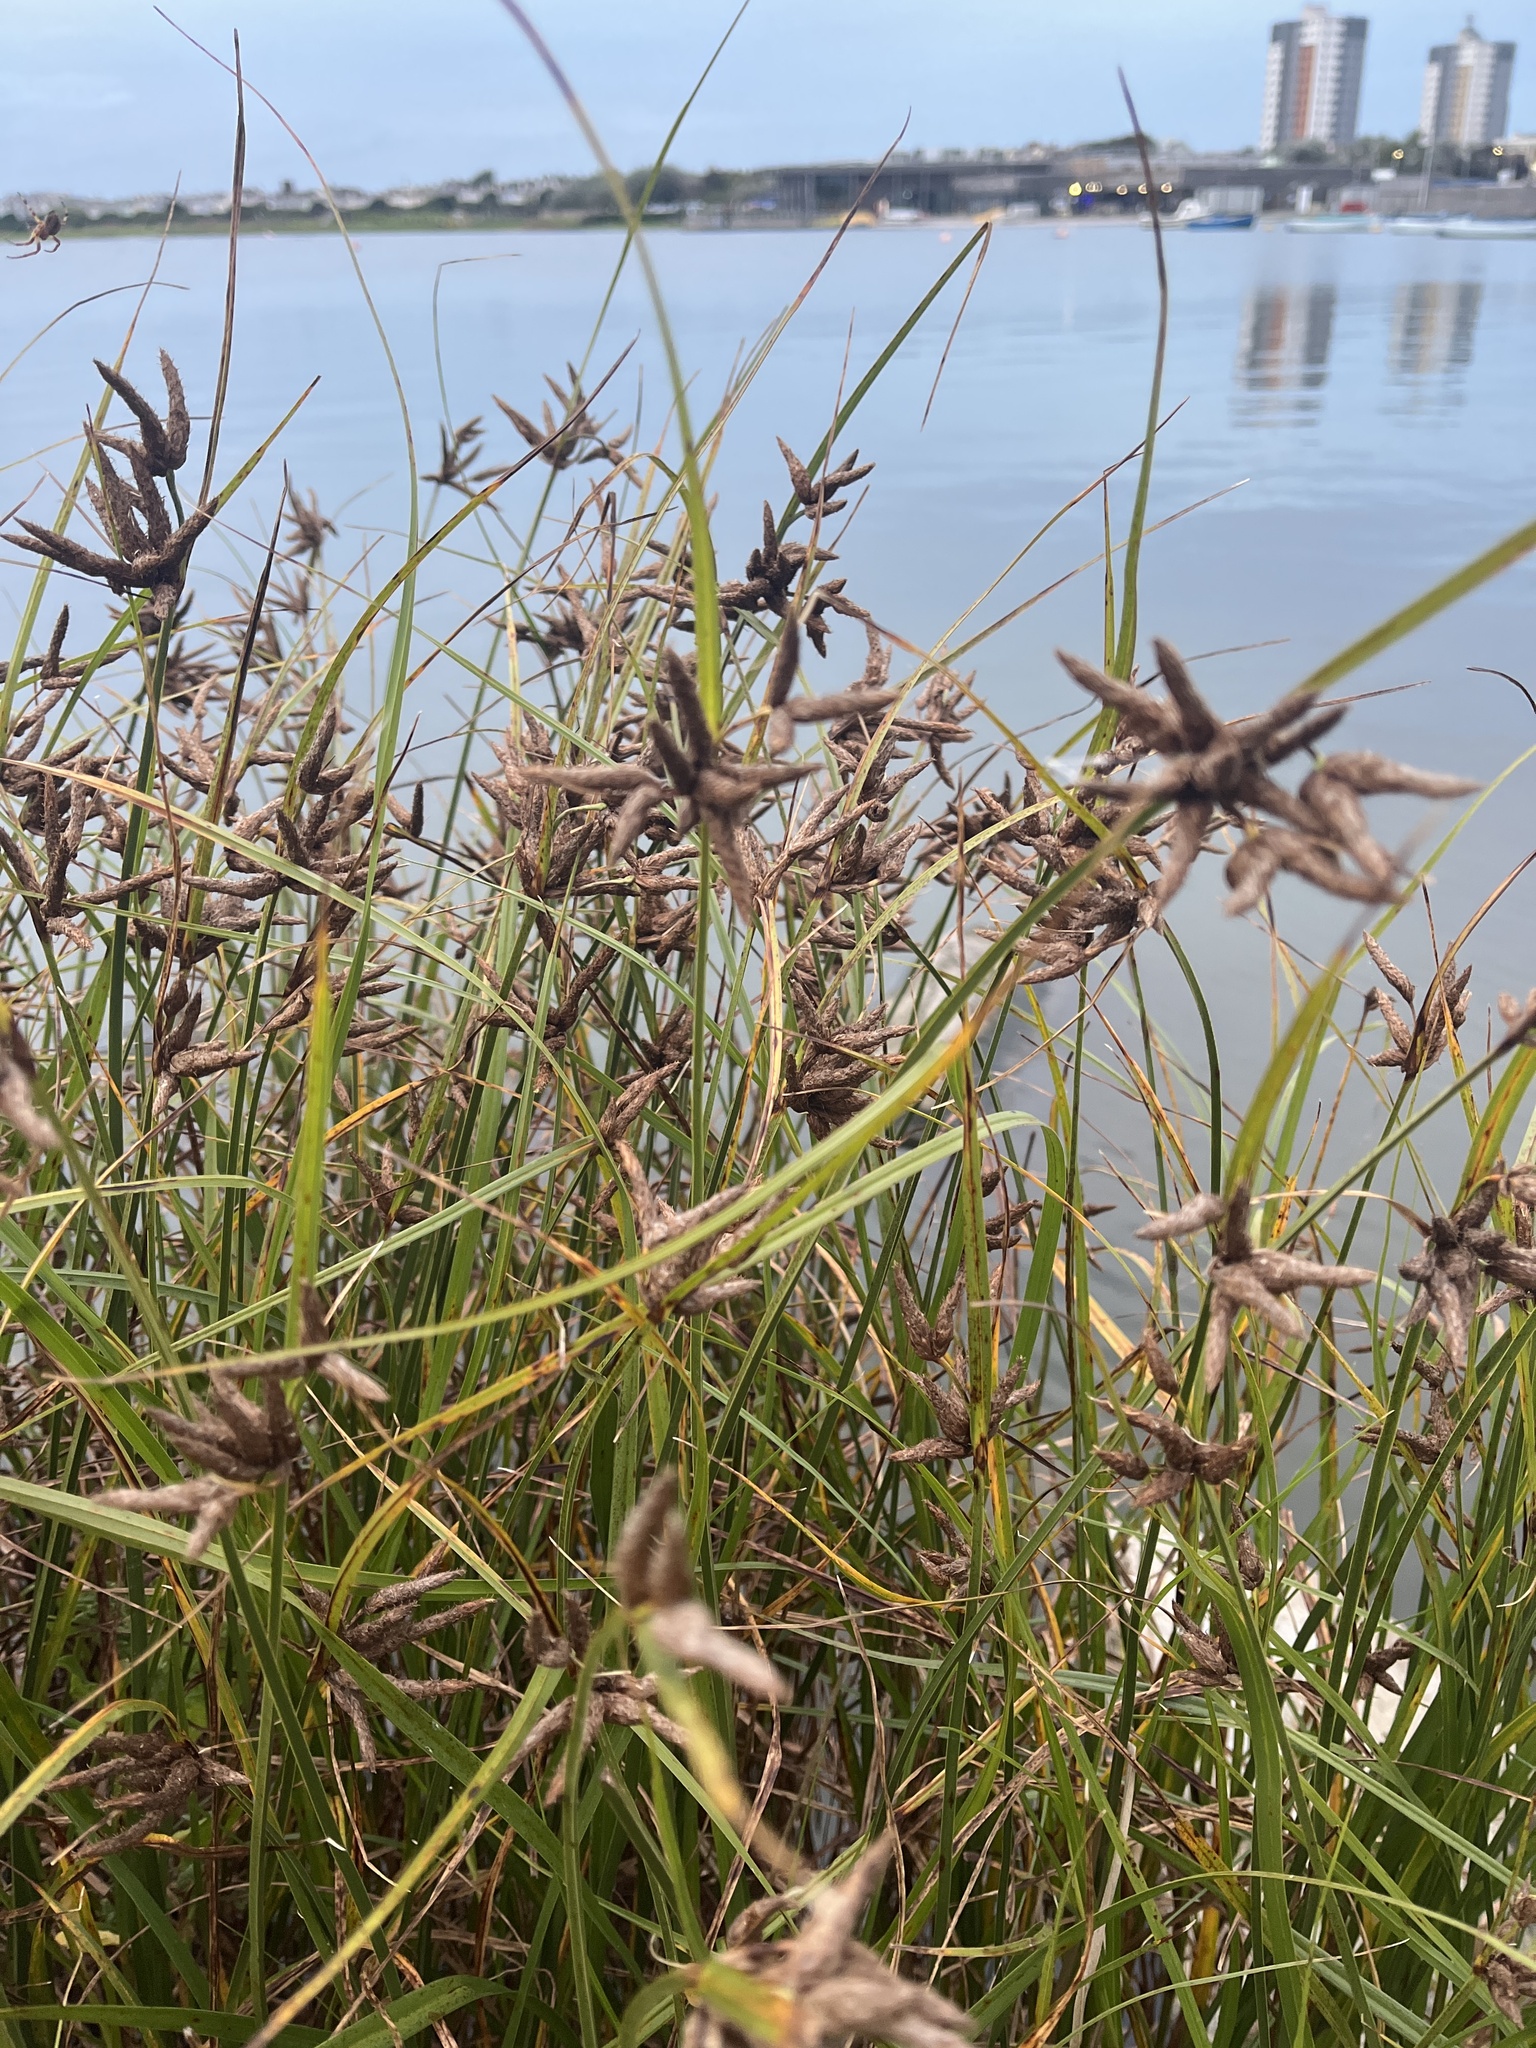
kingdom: Plantae
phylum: Tracheophyta
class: Liliopsida
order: Poales
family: Cyperaceae
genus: Bolboschoenus
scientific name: Bolboschoenus maritimus
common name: Sea club-rush
